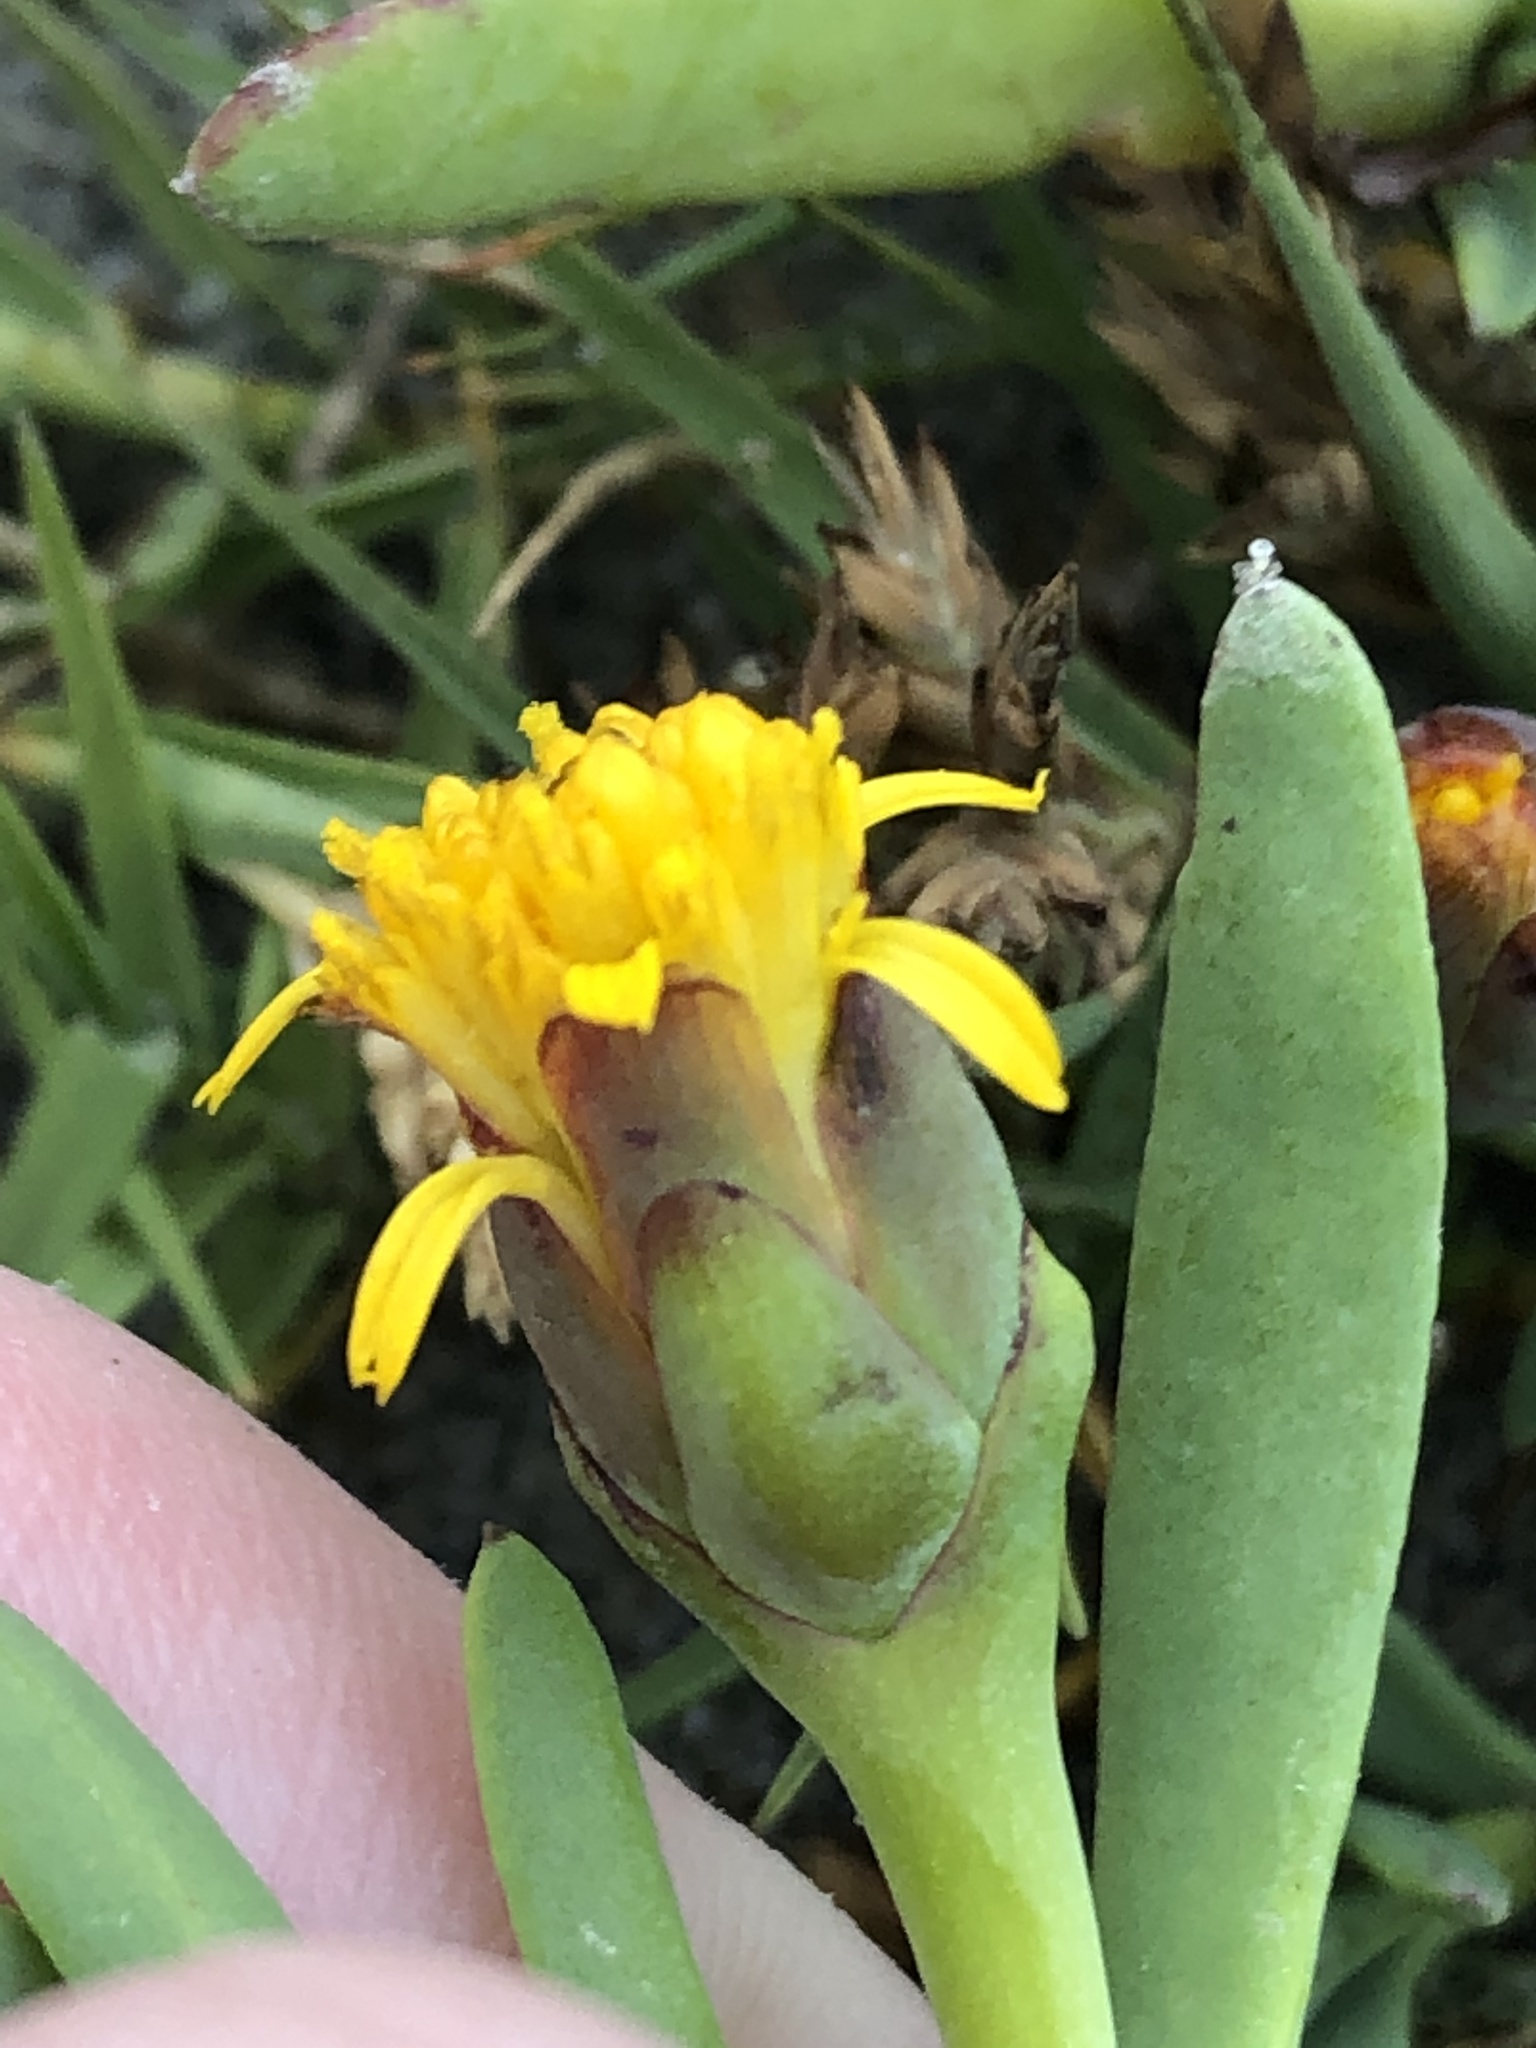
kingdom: Plantae
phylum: Tracheophyta
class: Magnoliopsida
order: Asterales
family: Asteraceae
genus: Jaumea
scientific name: Jaumea carnosa
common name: Fleshy jaumea
